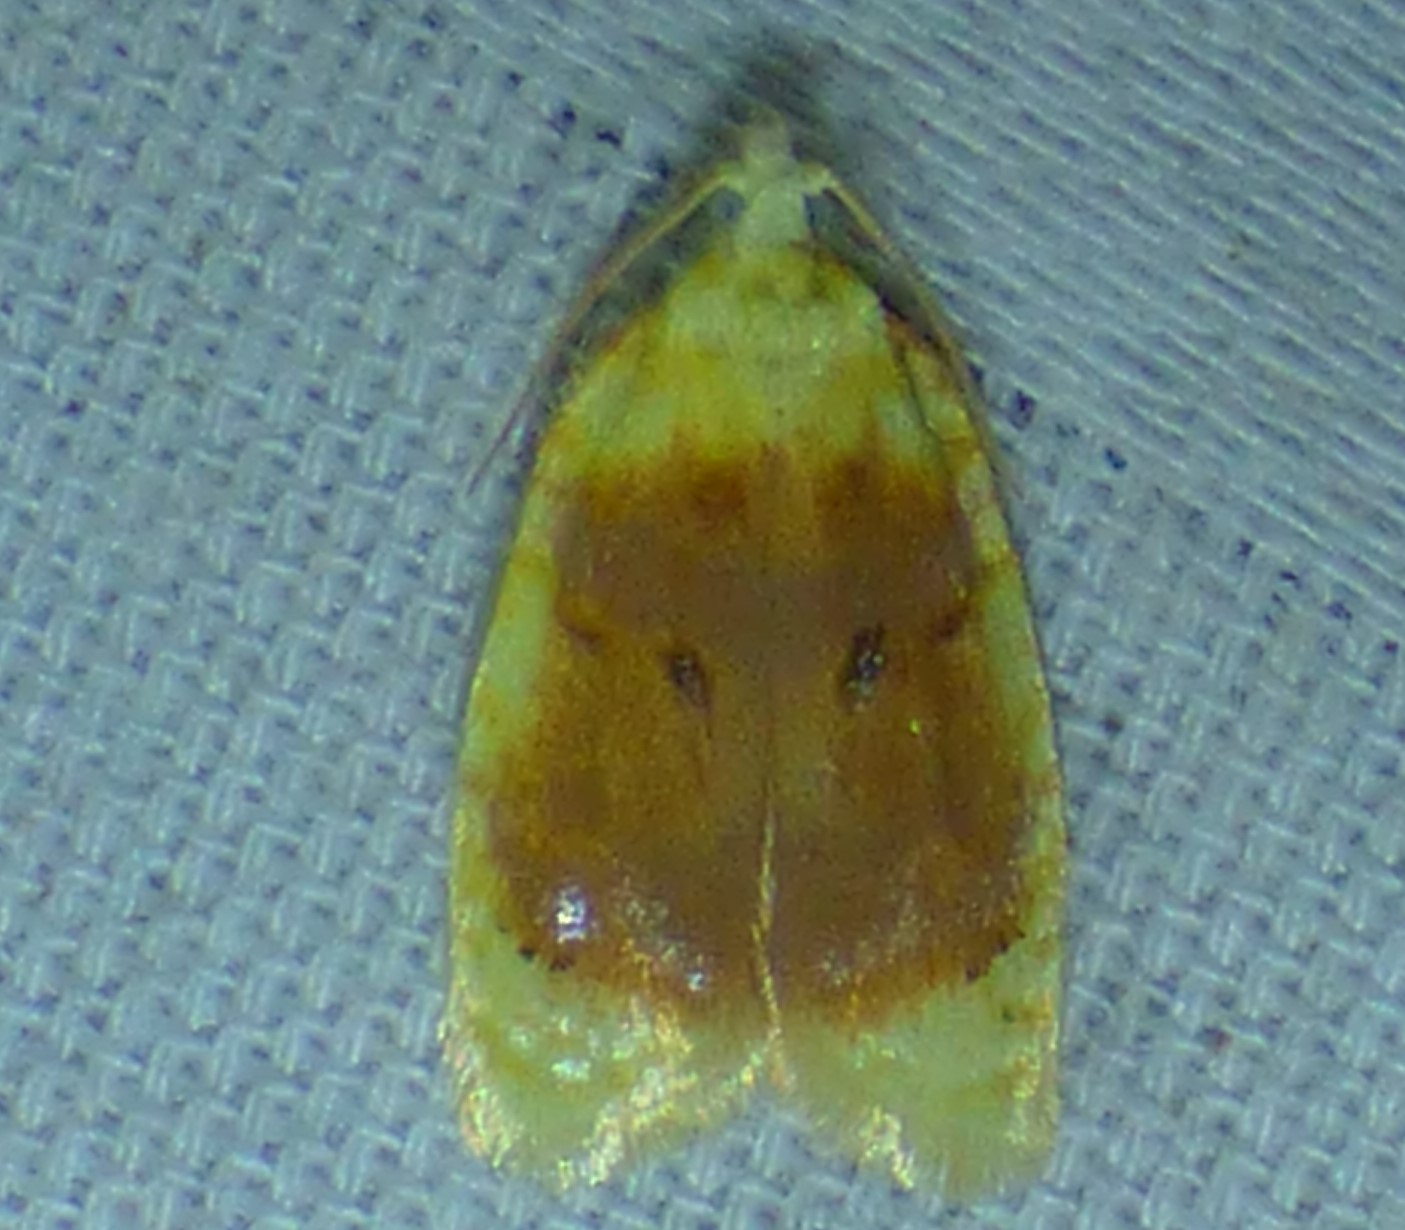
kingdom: Animalia
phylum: Arthropoda
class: Insecta
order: Lepidoptera
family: Tortricidae
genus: Acleris
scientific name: Acleris semipurpurana
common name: Oak leaftier moth
